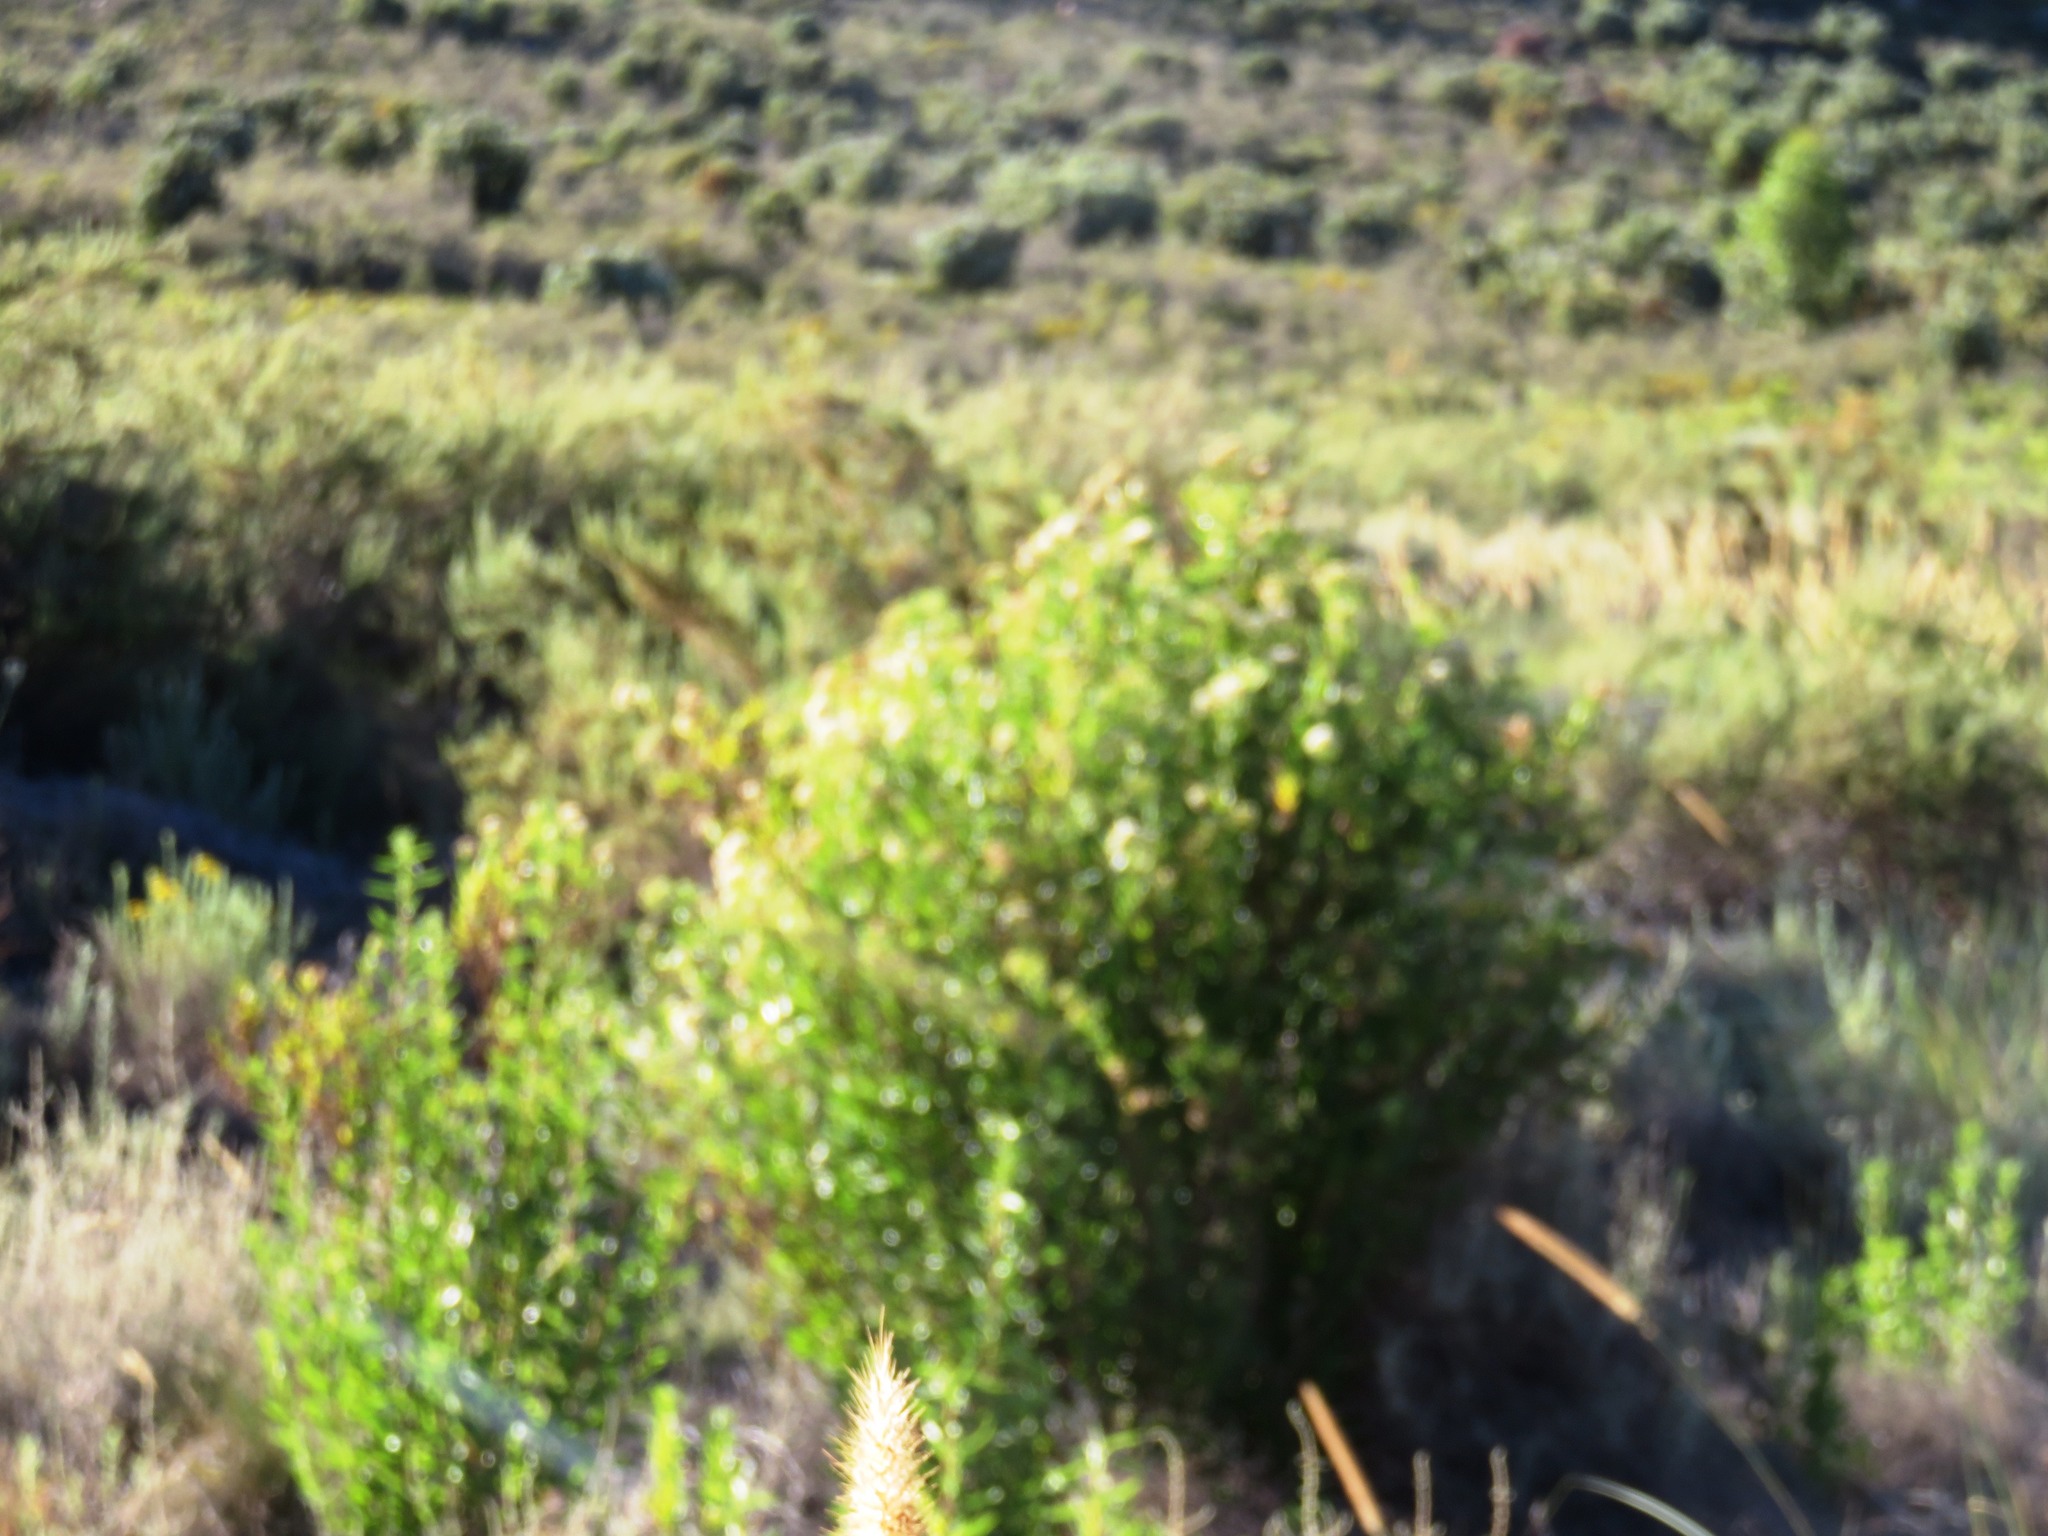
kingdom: Plantae
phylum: Tracheophyta
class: Magnoliopsida
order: Asterales
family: Asteraceae
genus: Nidorella
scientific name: Nidorella ivifolia
